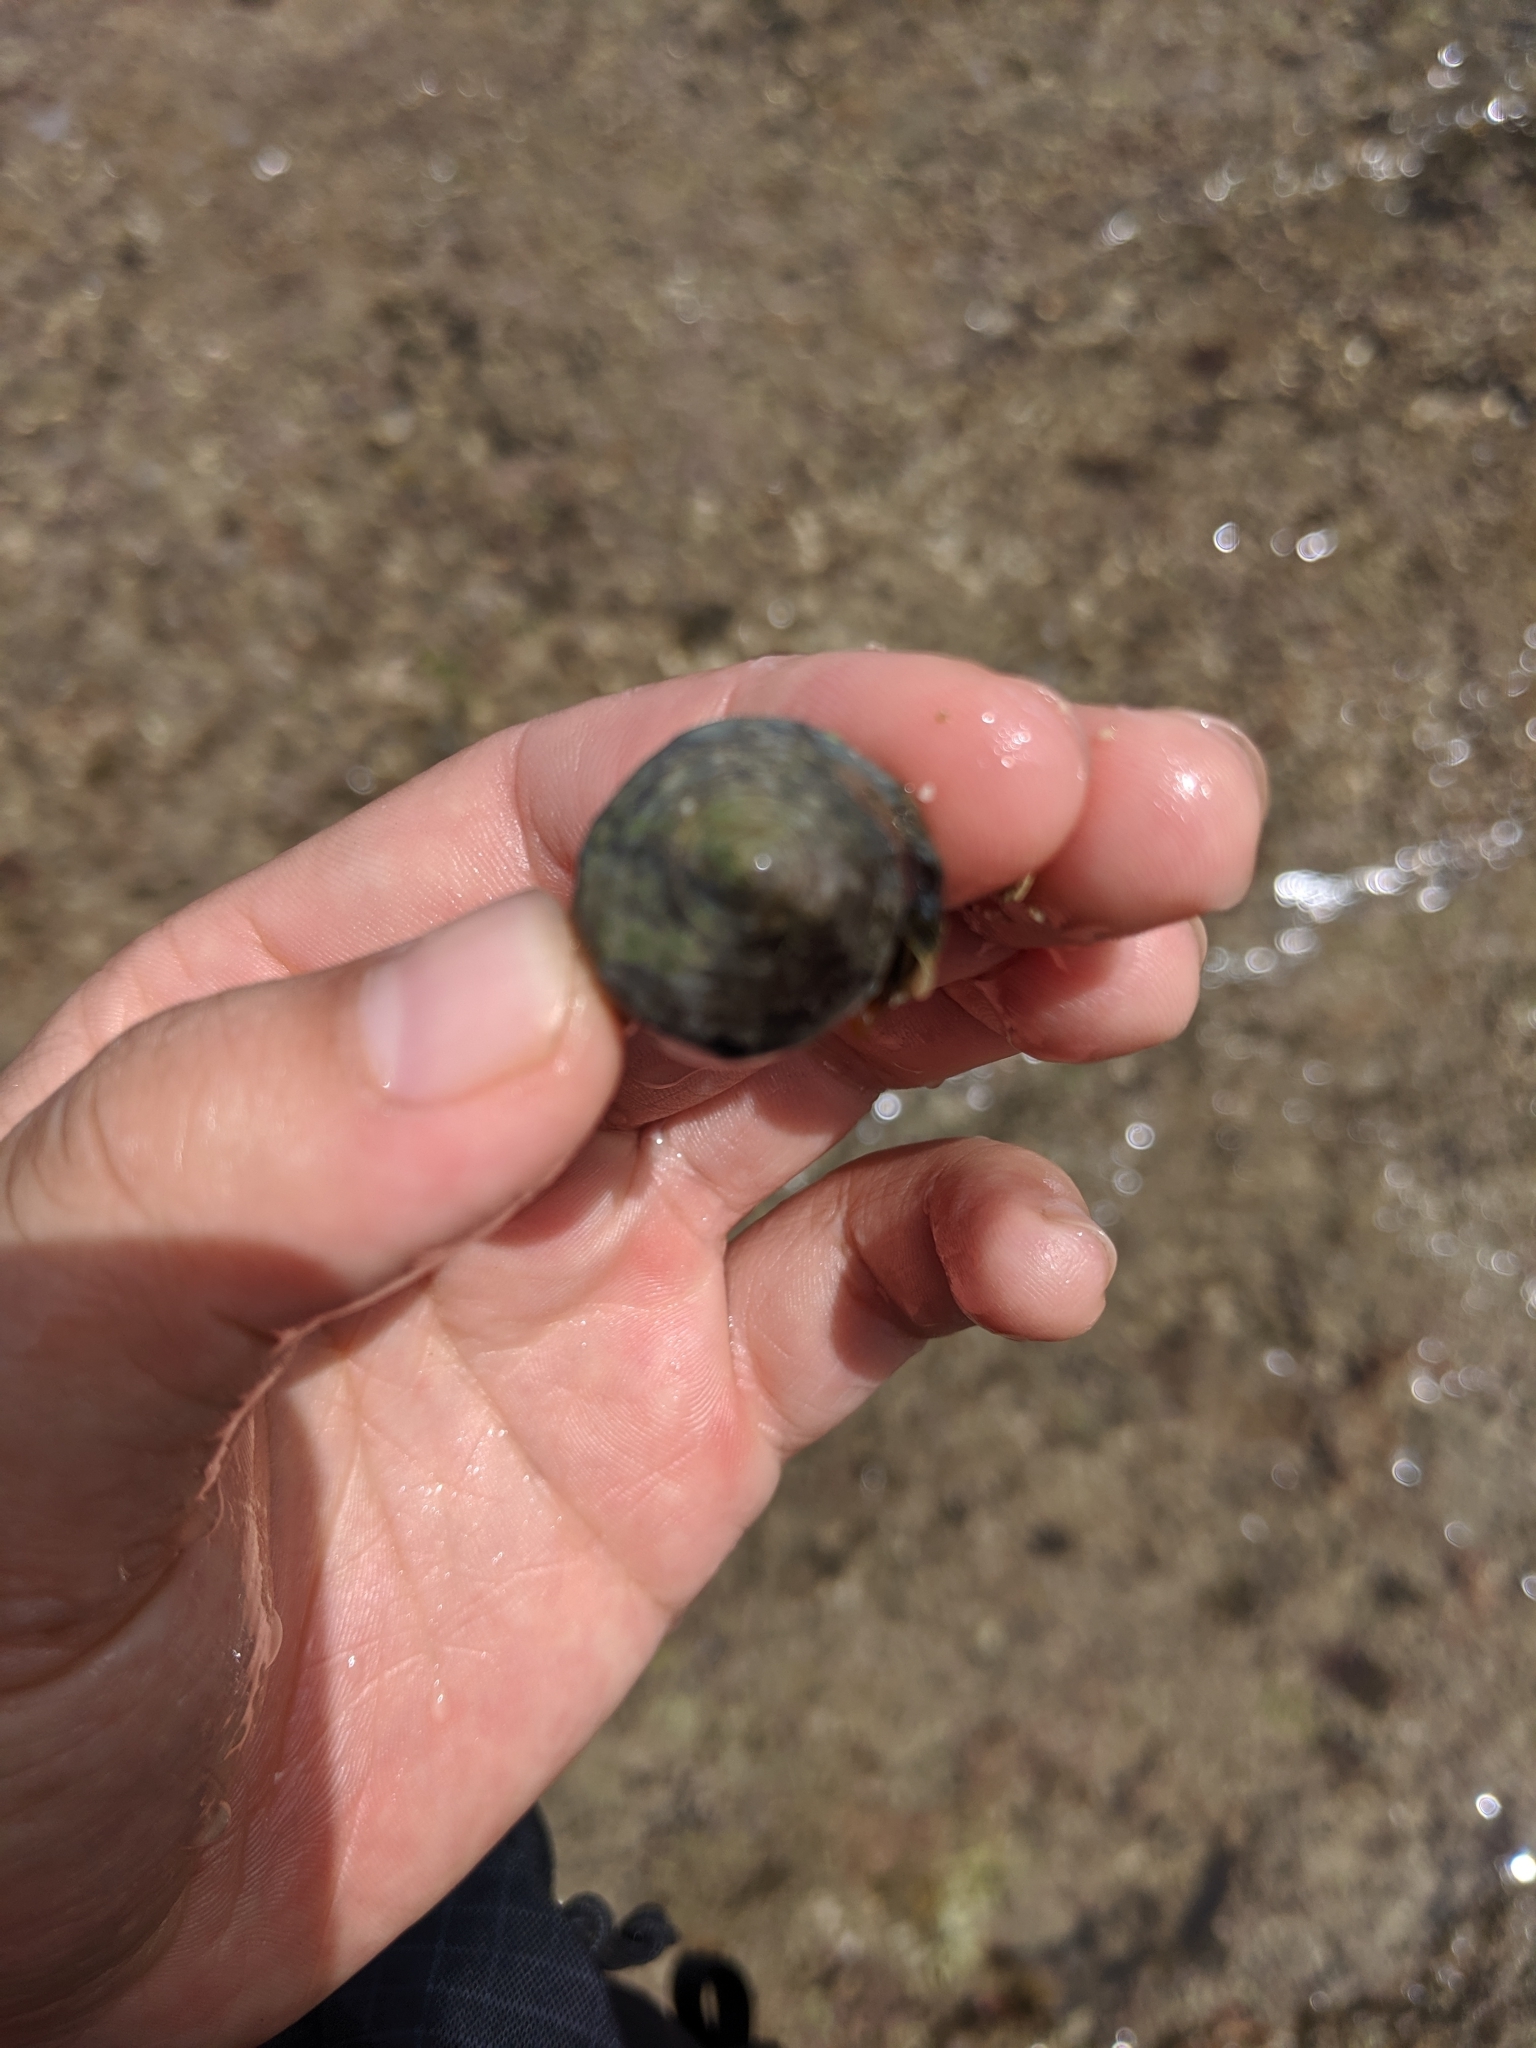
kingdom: Animalia
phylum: Mollusca
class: Gastropoda
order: Neogastropoda
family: Conidae
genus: Conus
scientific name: Conus coronatus
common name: Coronated cone
